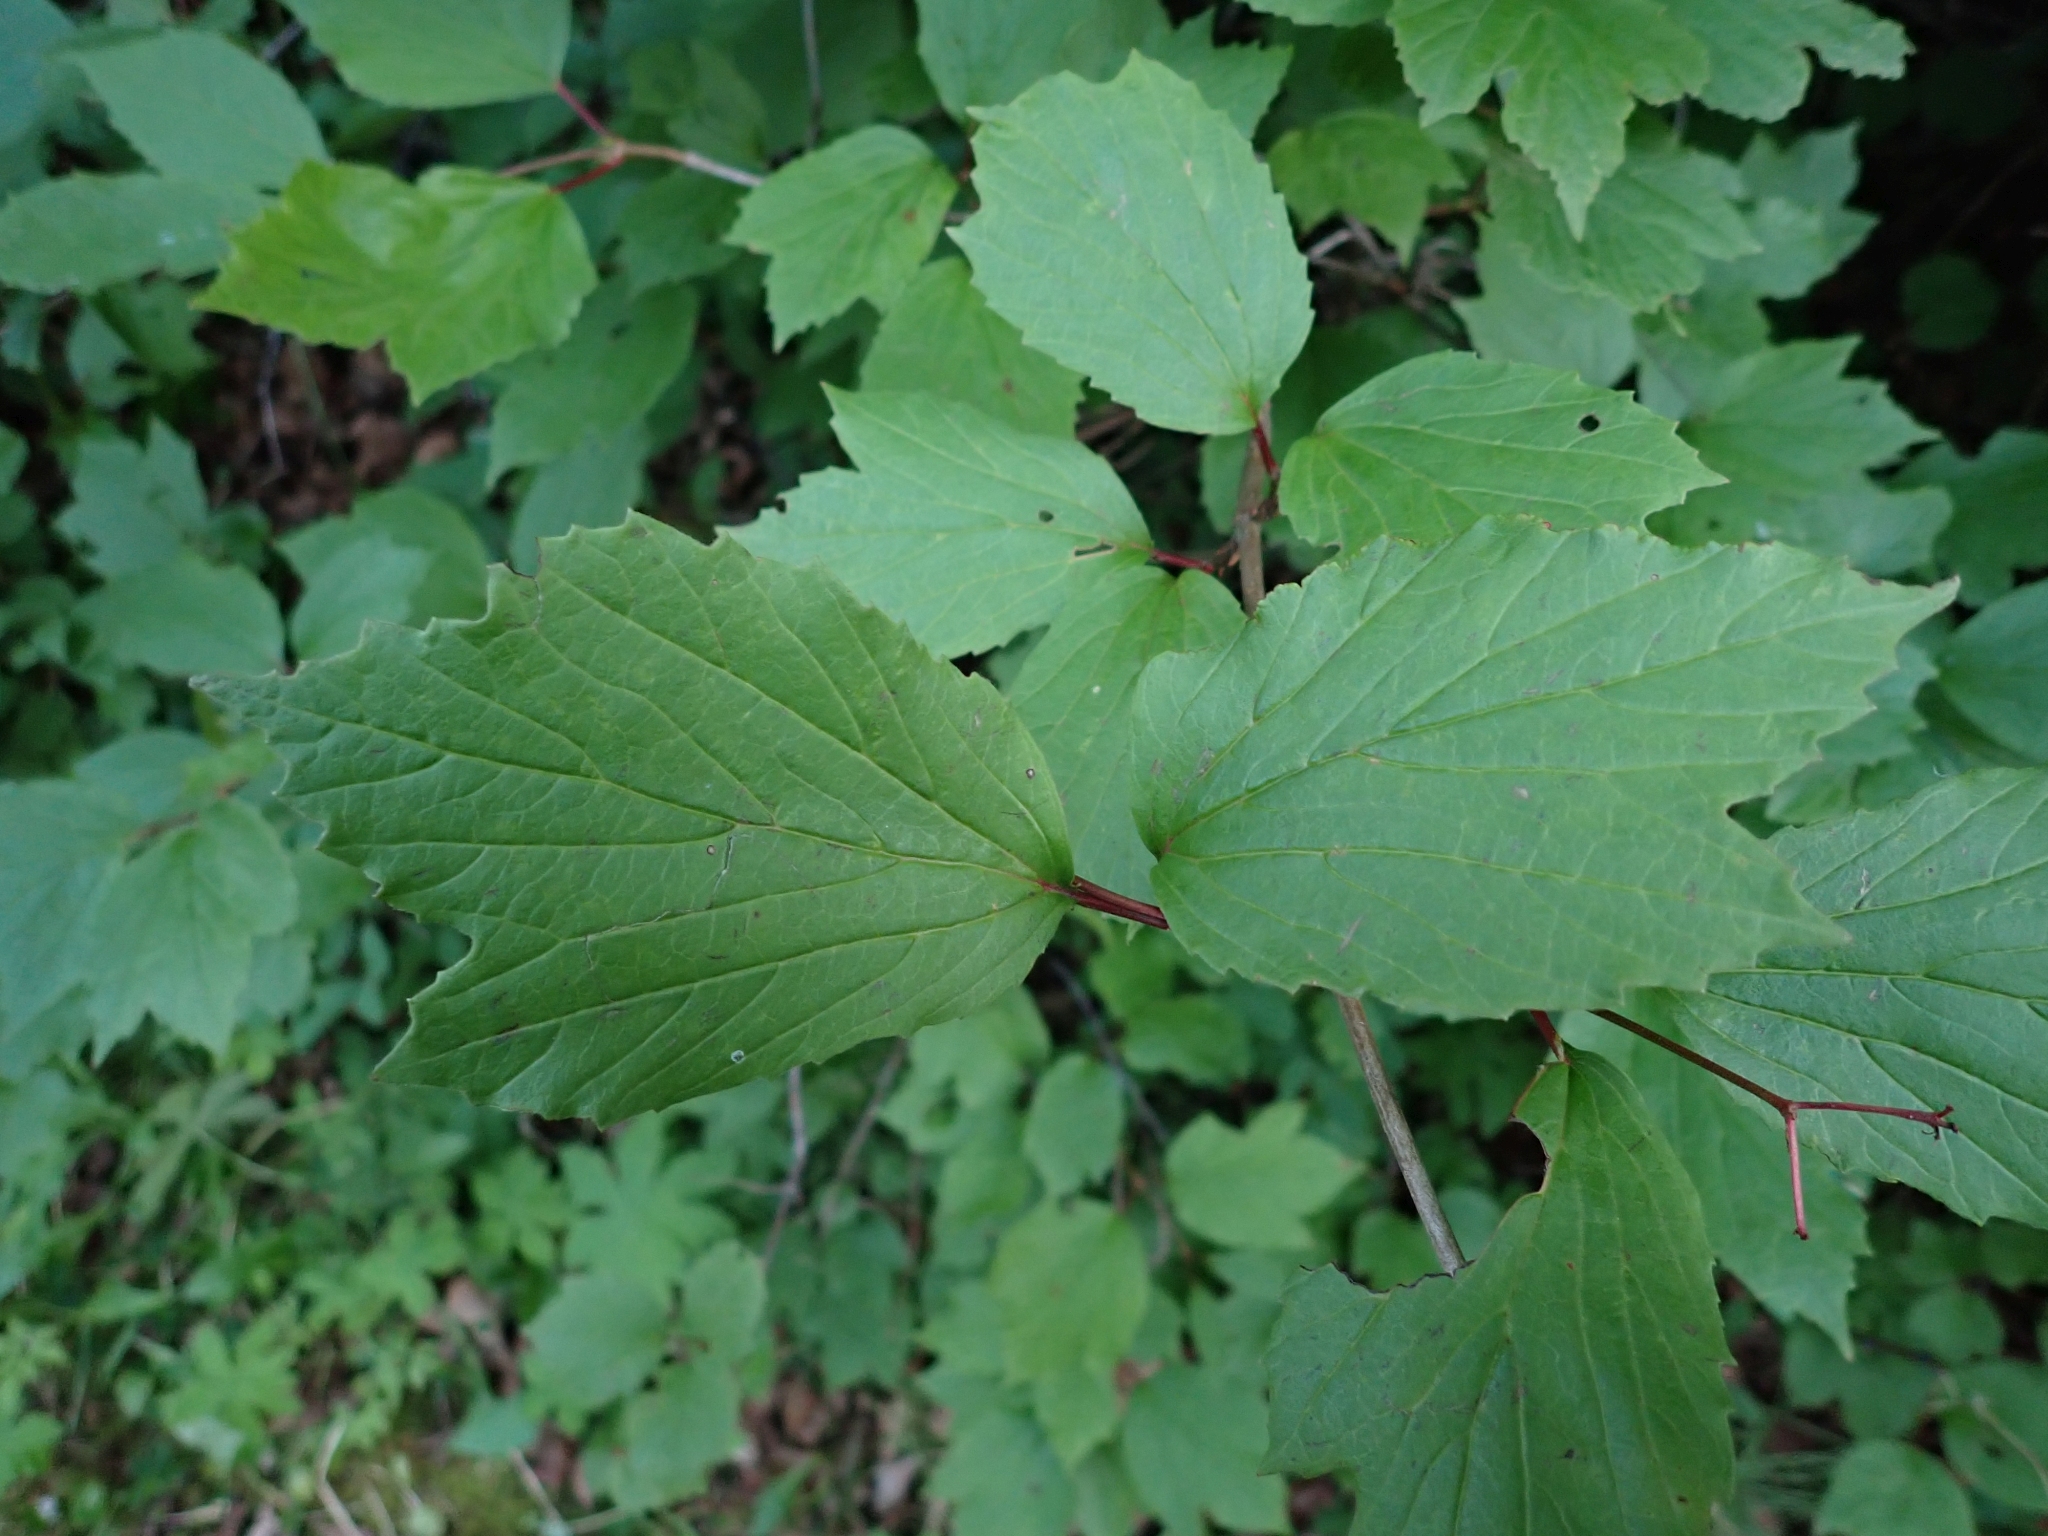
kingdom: Plantae
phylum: Tracheophyta
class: Magnoliopsida
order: Dipsacales
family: Viburnaceae
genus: Viburnum
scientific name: Viburnum edule
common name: Mooseberry
